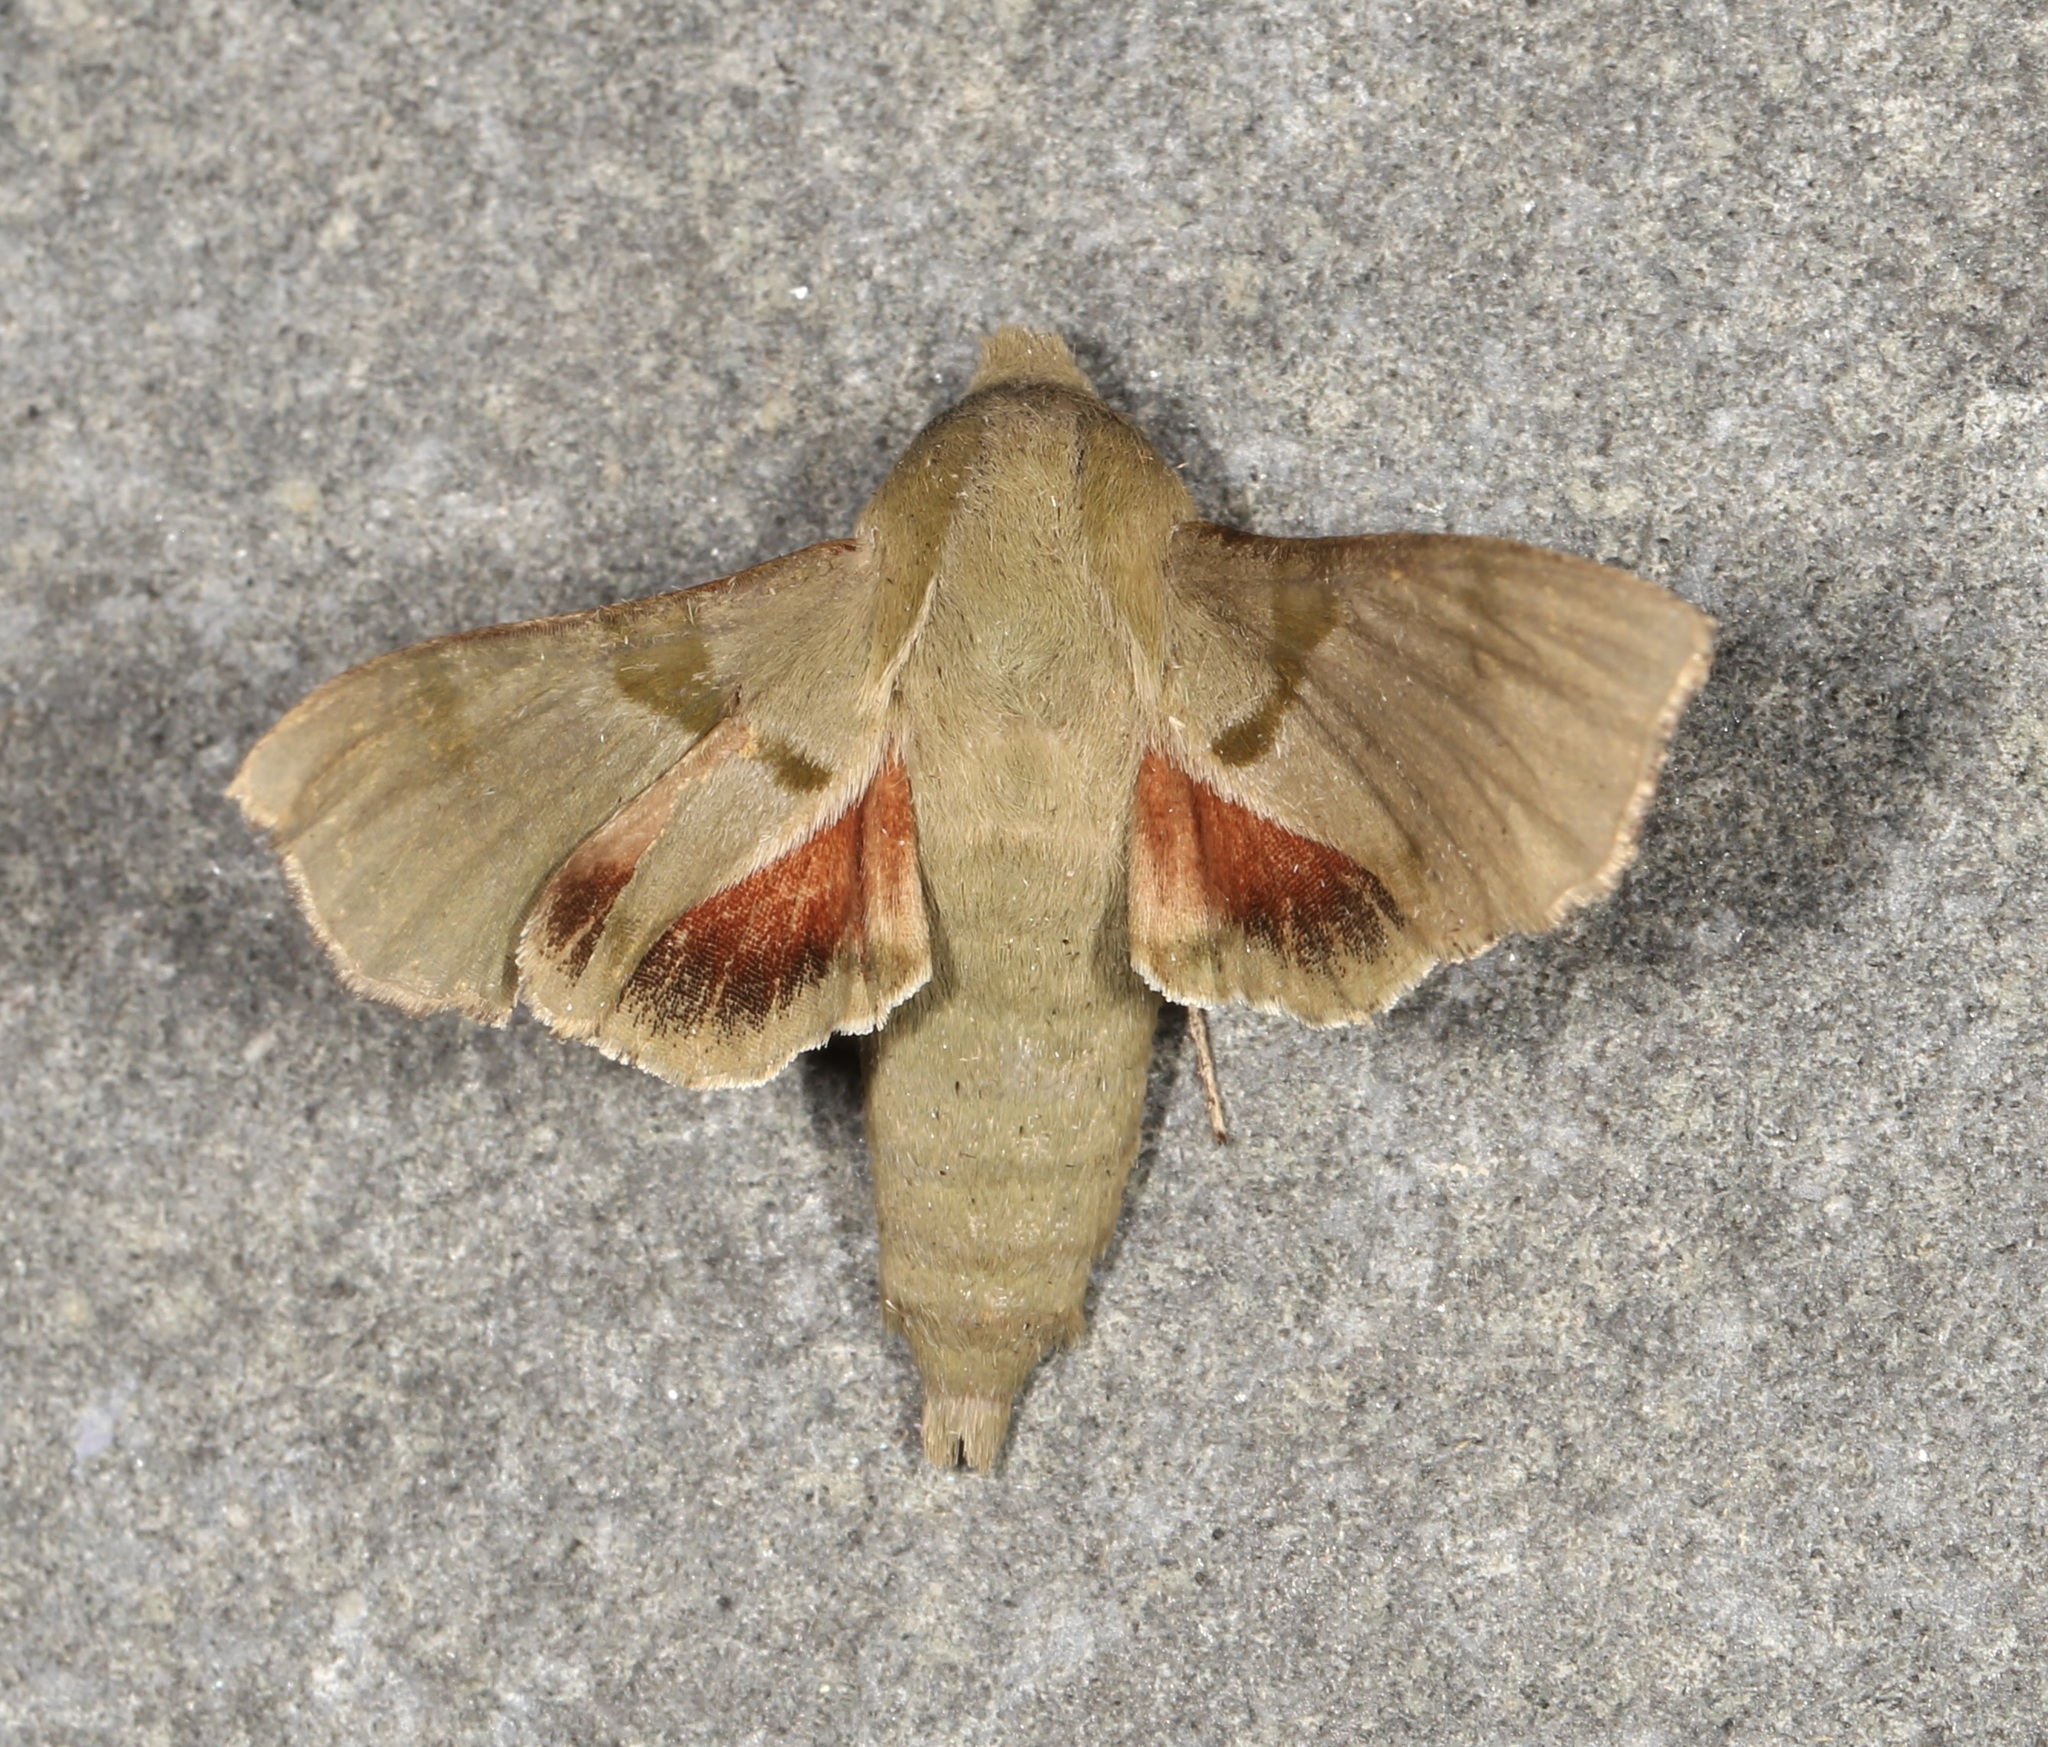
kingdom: Animalia
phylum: Arthropoda
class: Insecta
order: Lepidoptera
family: Sphingidae
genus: Proserpinus
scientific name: Proserpinus terlooii
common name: Terloo's sphinx
